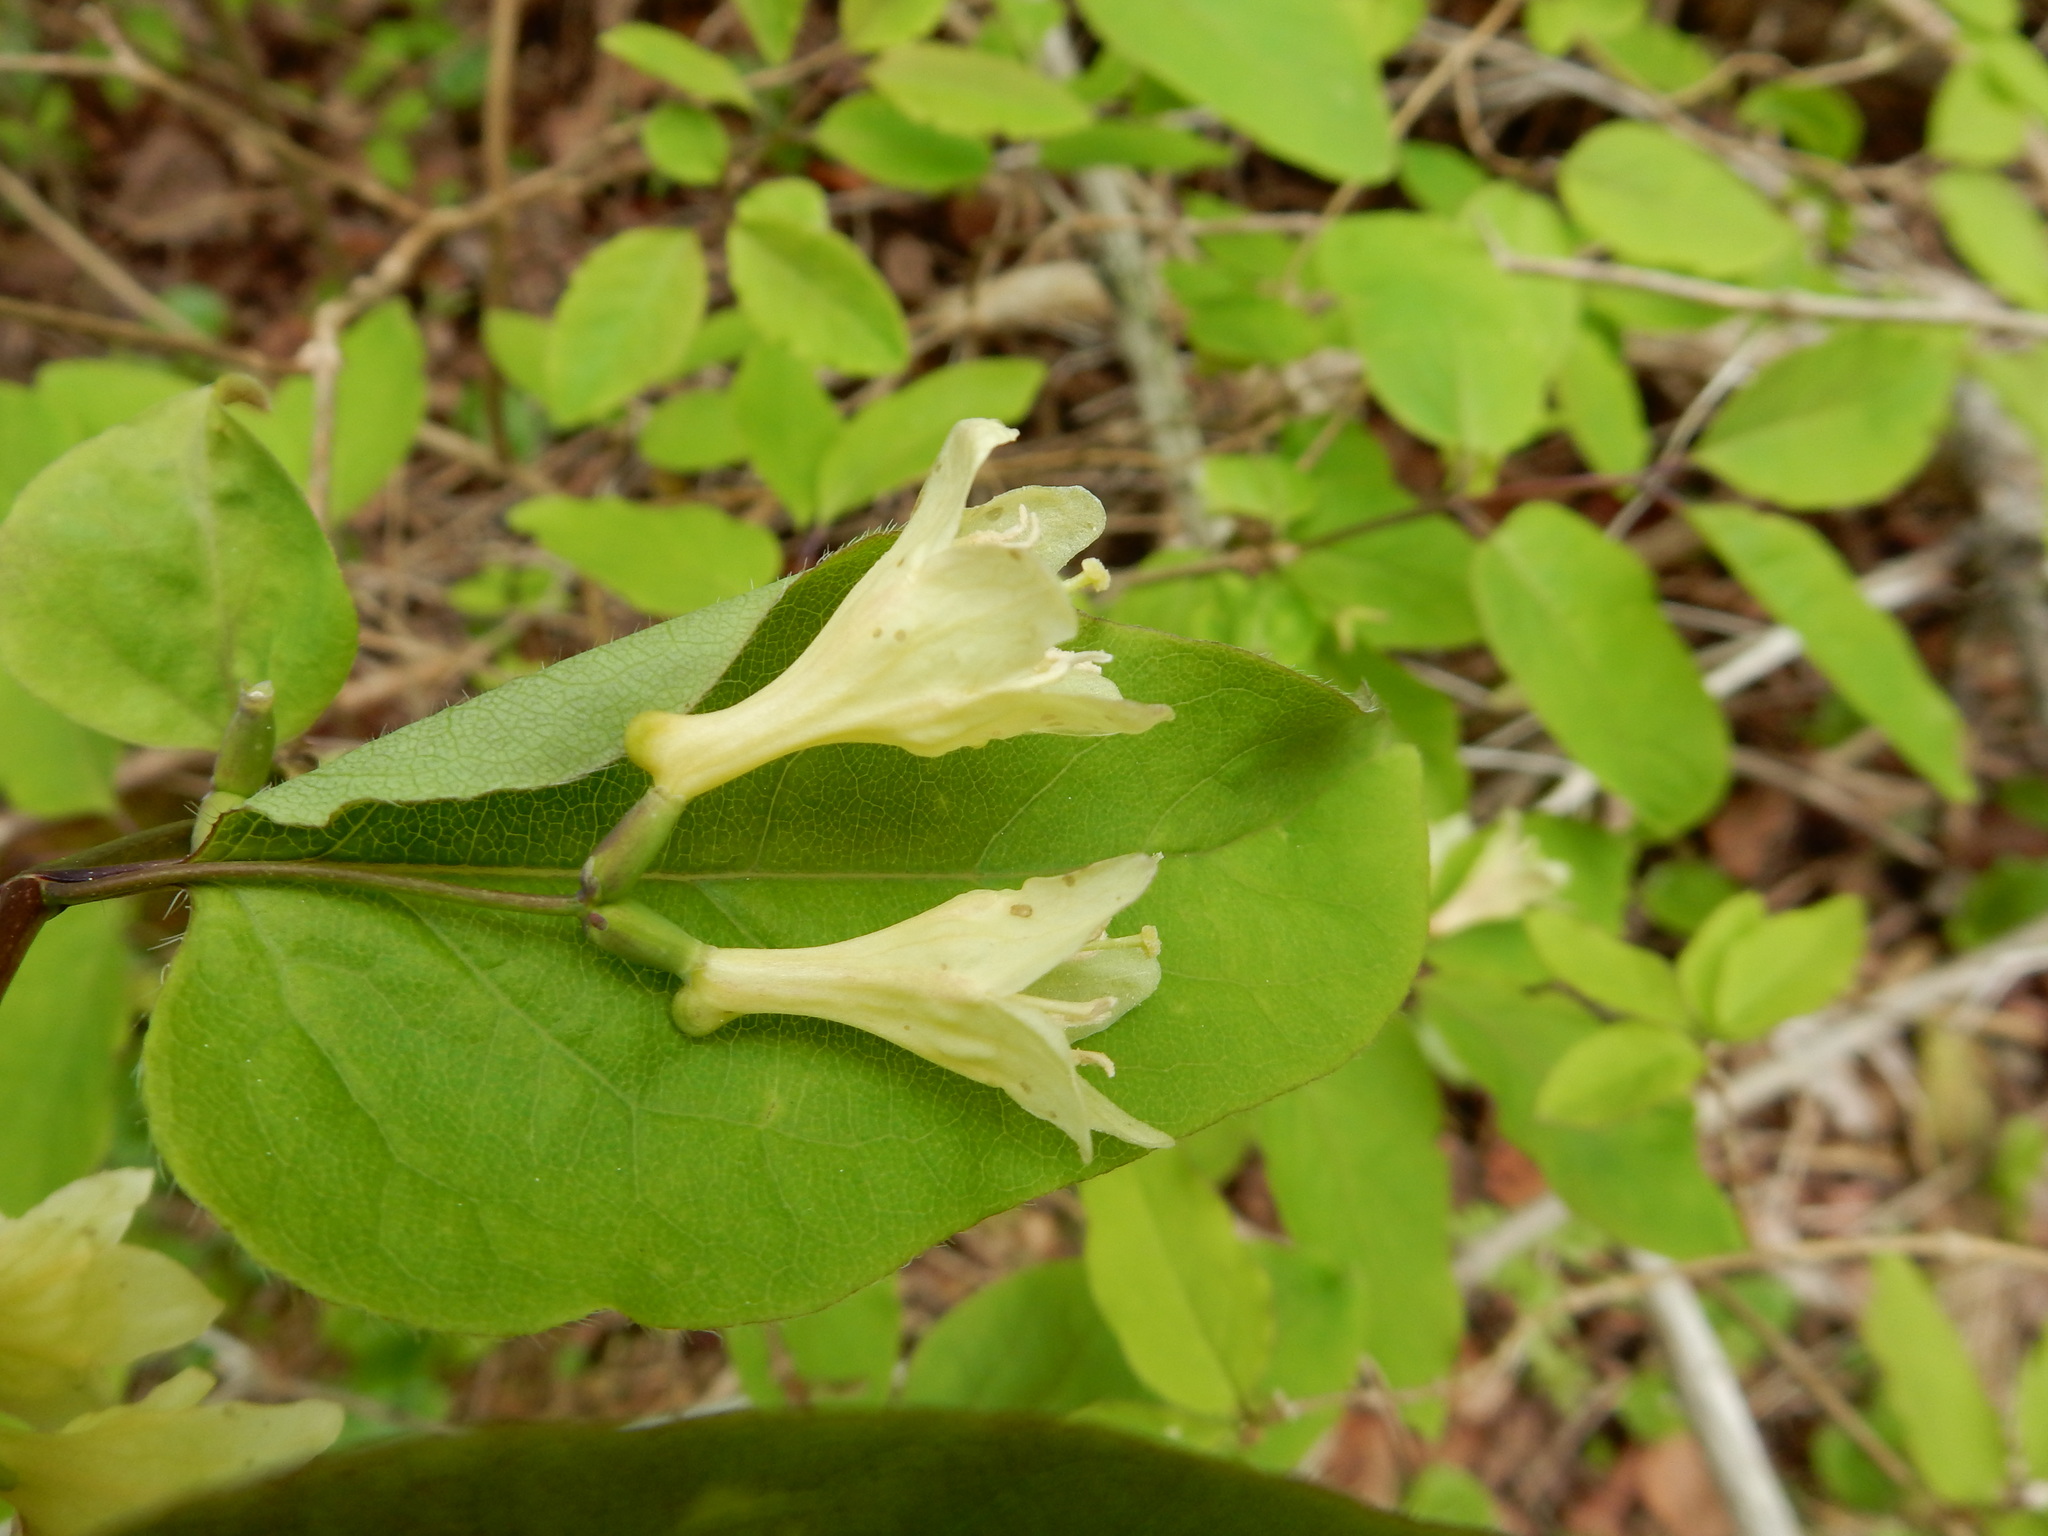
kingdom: Plantae
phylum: Tracheophyta
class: Magnoliopsida
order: Dipsacales
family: Caprifoliaceae
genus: Lonicera
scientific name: Lonicera canadensis
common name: American fly-honeysuckle
